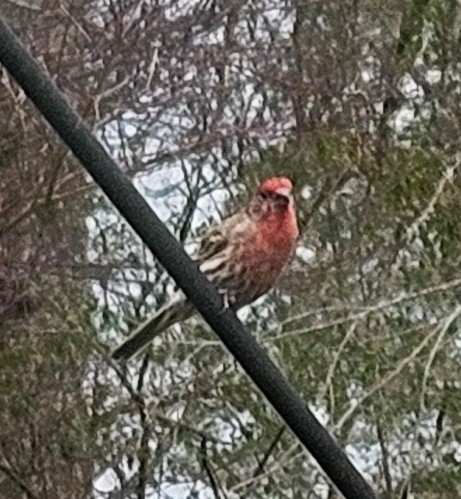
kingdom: Animalia
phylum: Chordata
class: Aves
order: Passeriformes
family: Fringillidae
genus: Haemorhous
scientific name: Haemorhous mexicanus
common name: House finch
